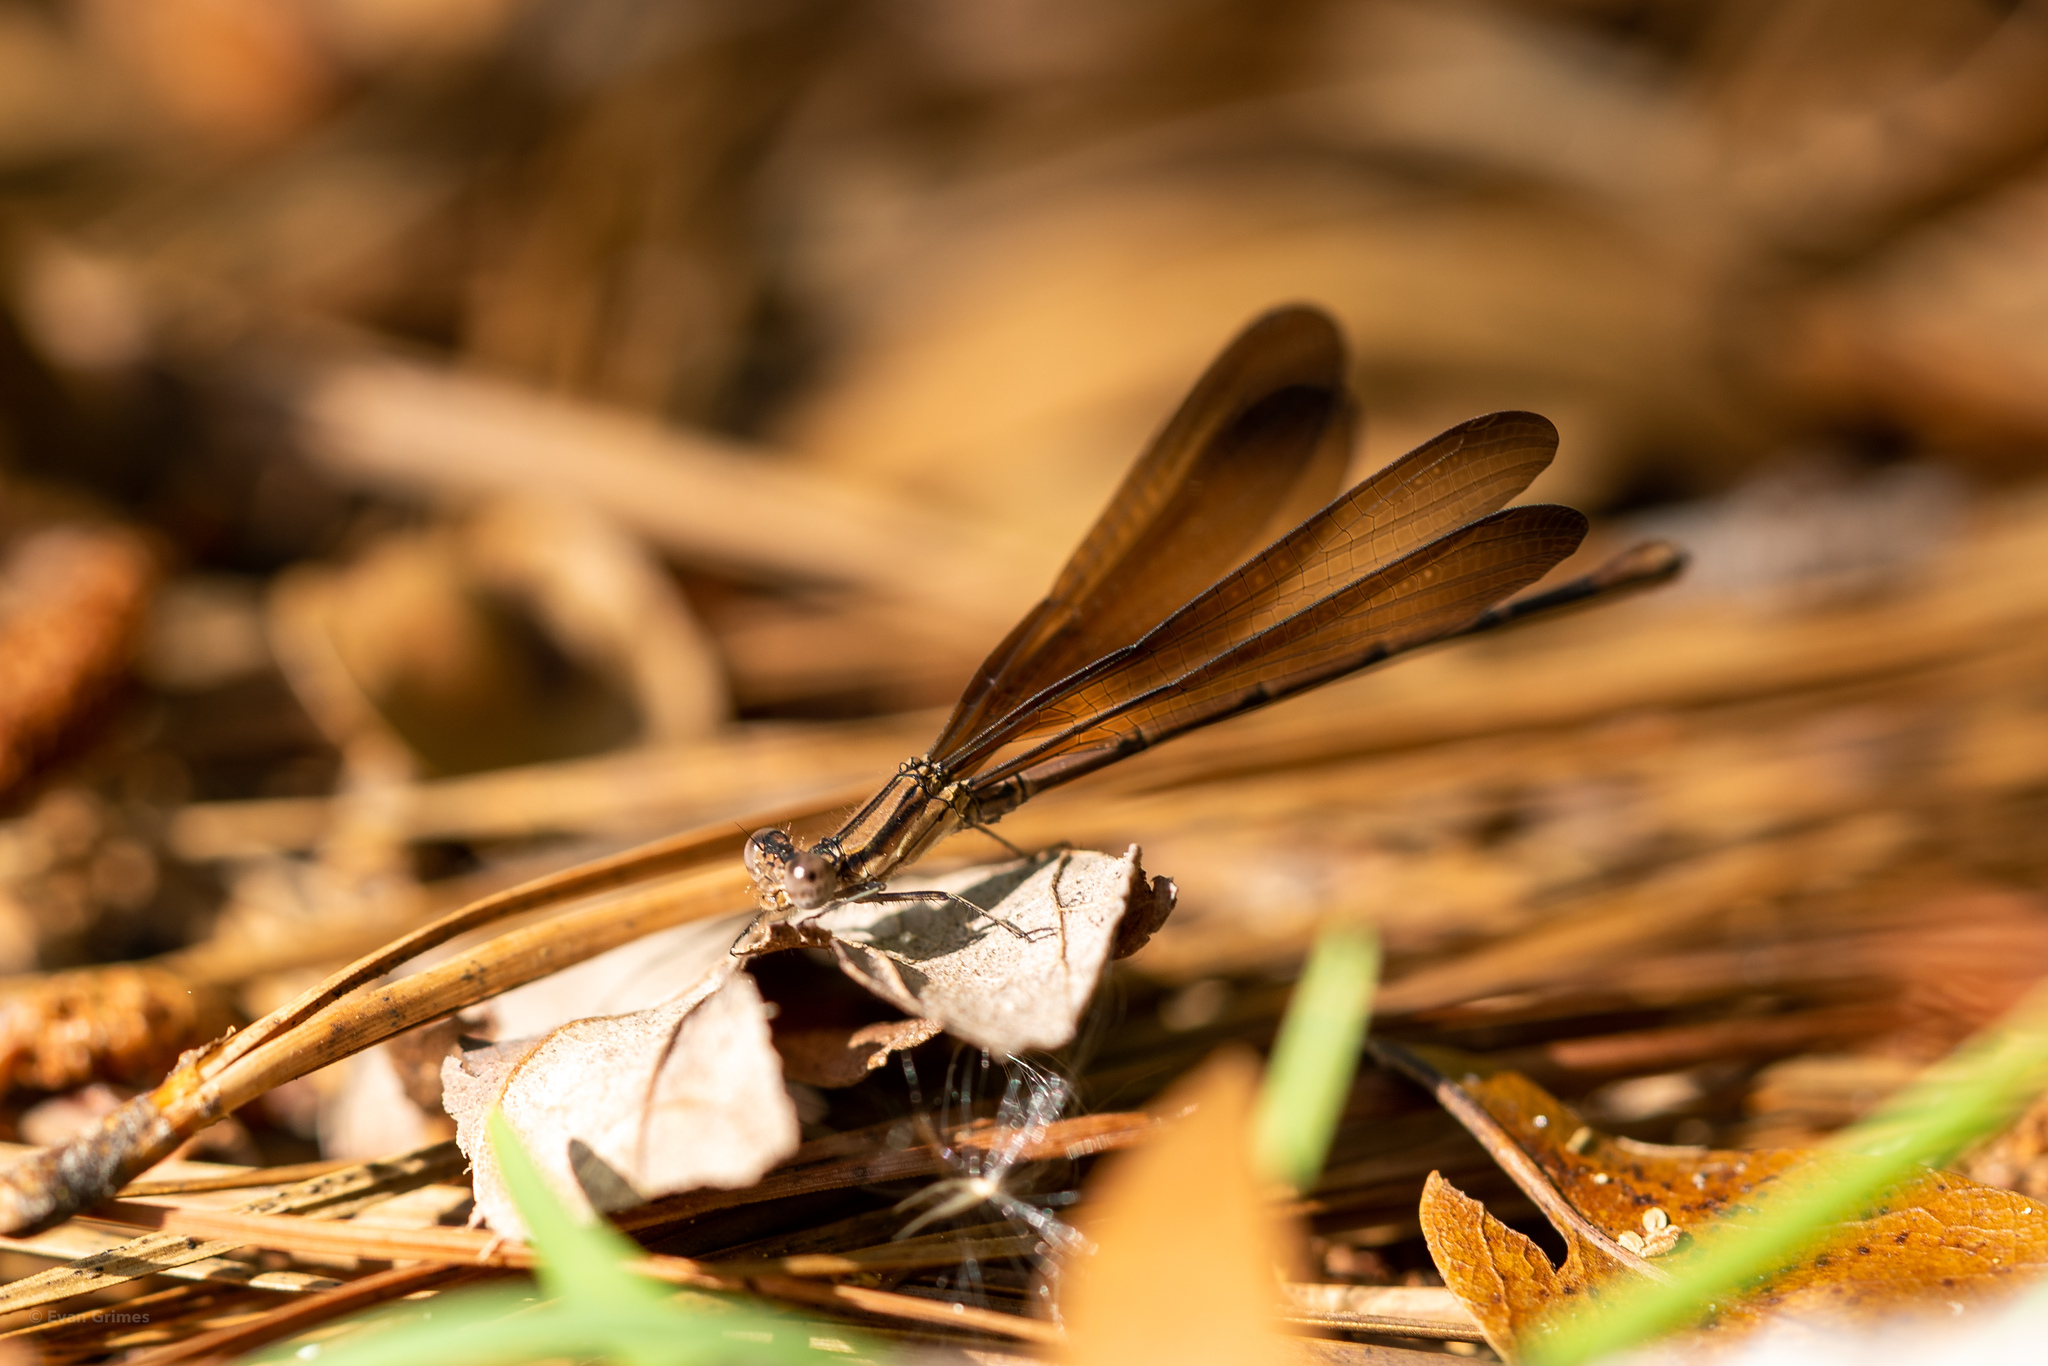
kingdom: Animalia
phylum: Arthropoda
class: Insecta
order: Odonata
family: Coenagrionidae
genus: Argia
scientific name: Argia fumipennis
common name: Variable dancer
